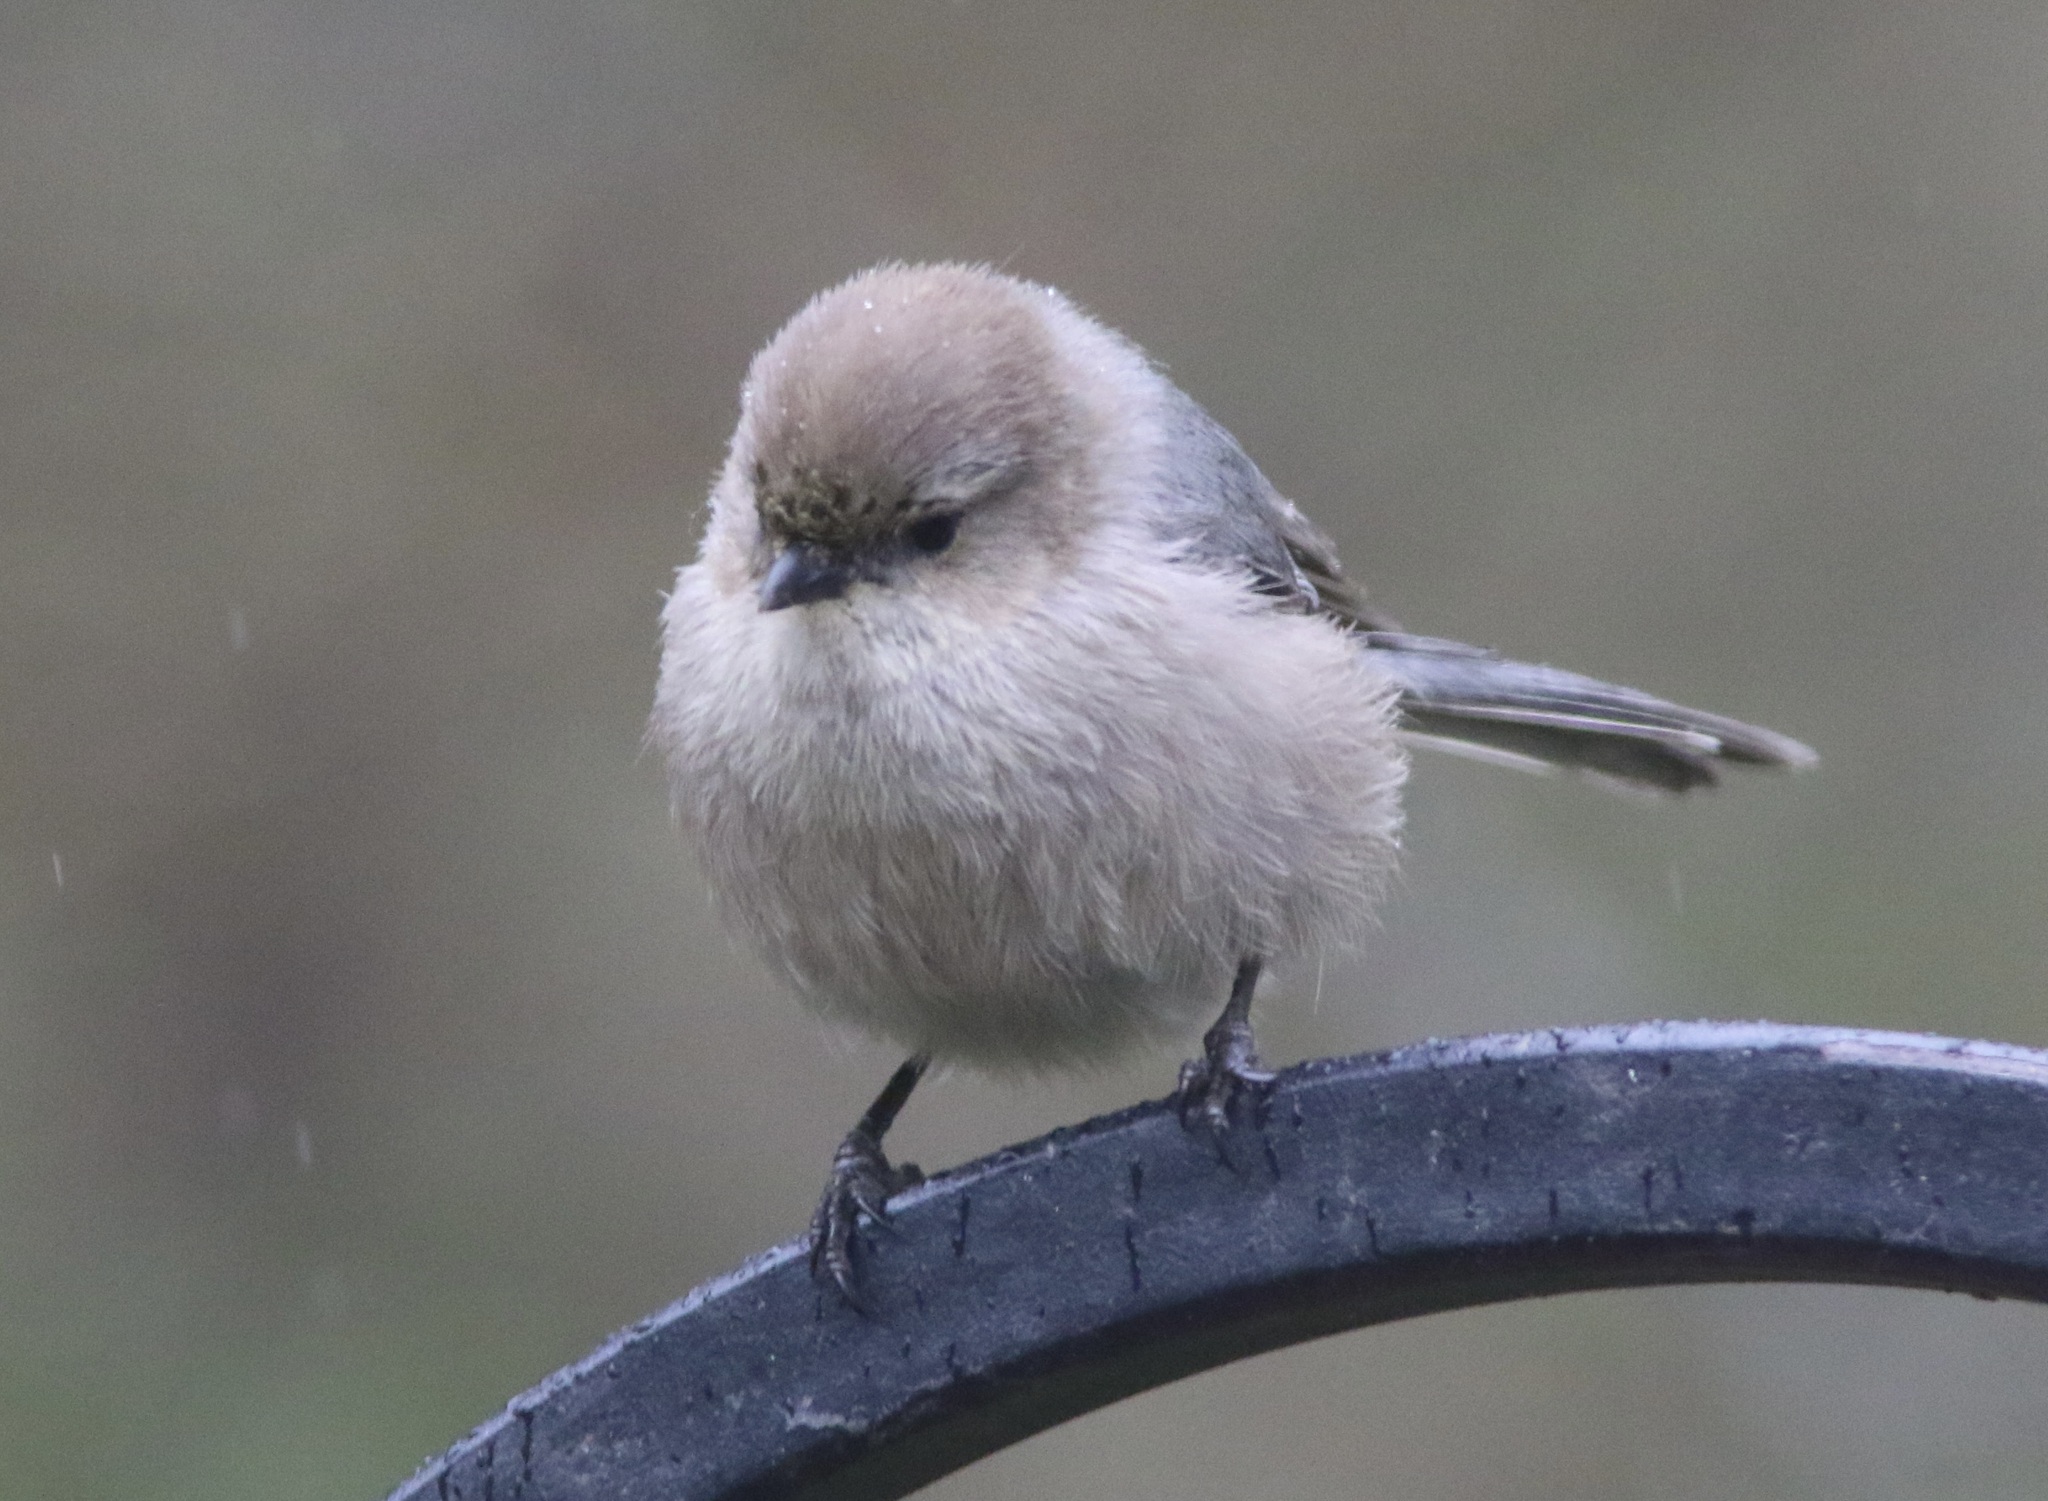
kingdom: Animalia
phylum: Chordata
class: Aves
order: Passeriformes
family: Aegithalidae
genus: Psaltriparus
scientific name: Psaltriparus minimus
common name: American bushtit
